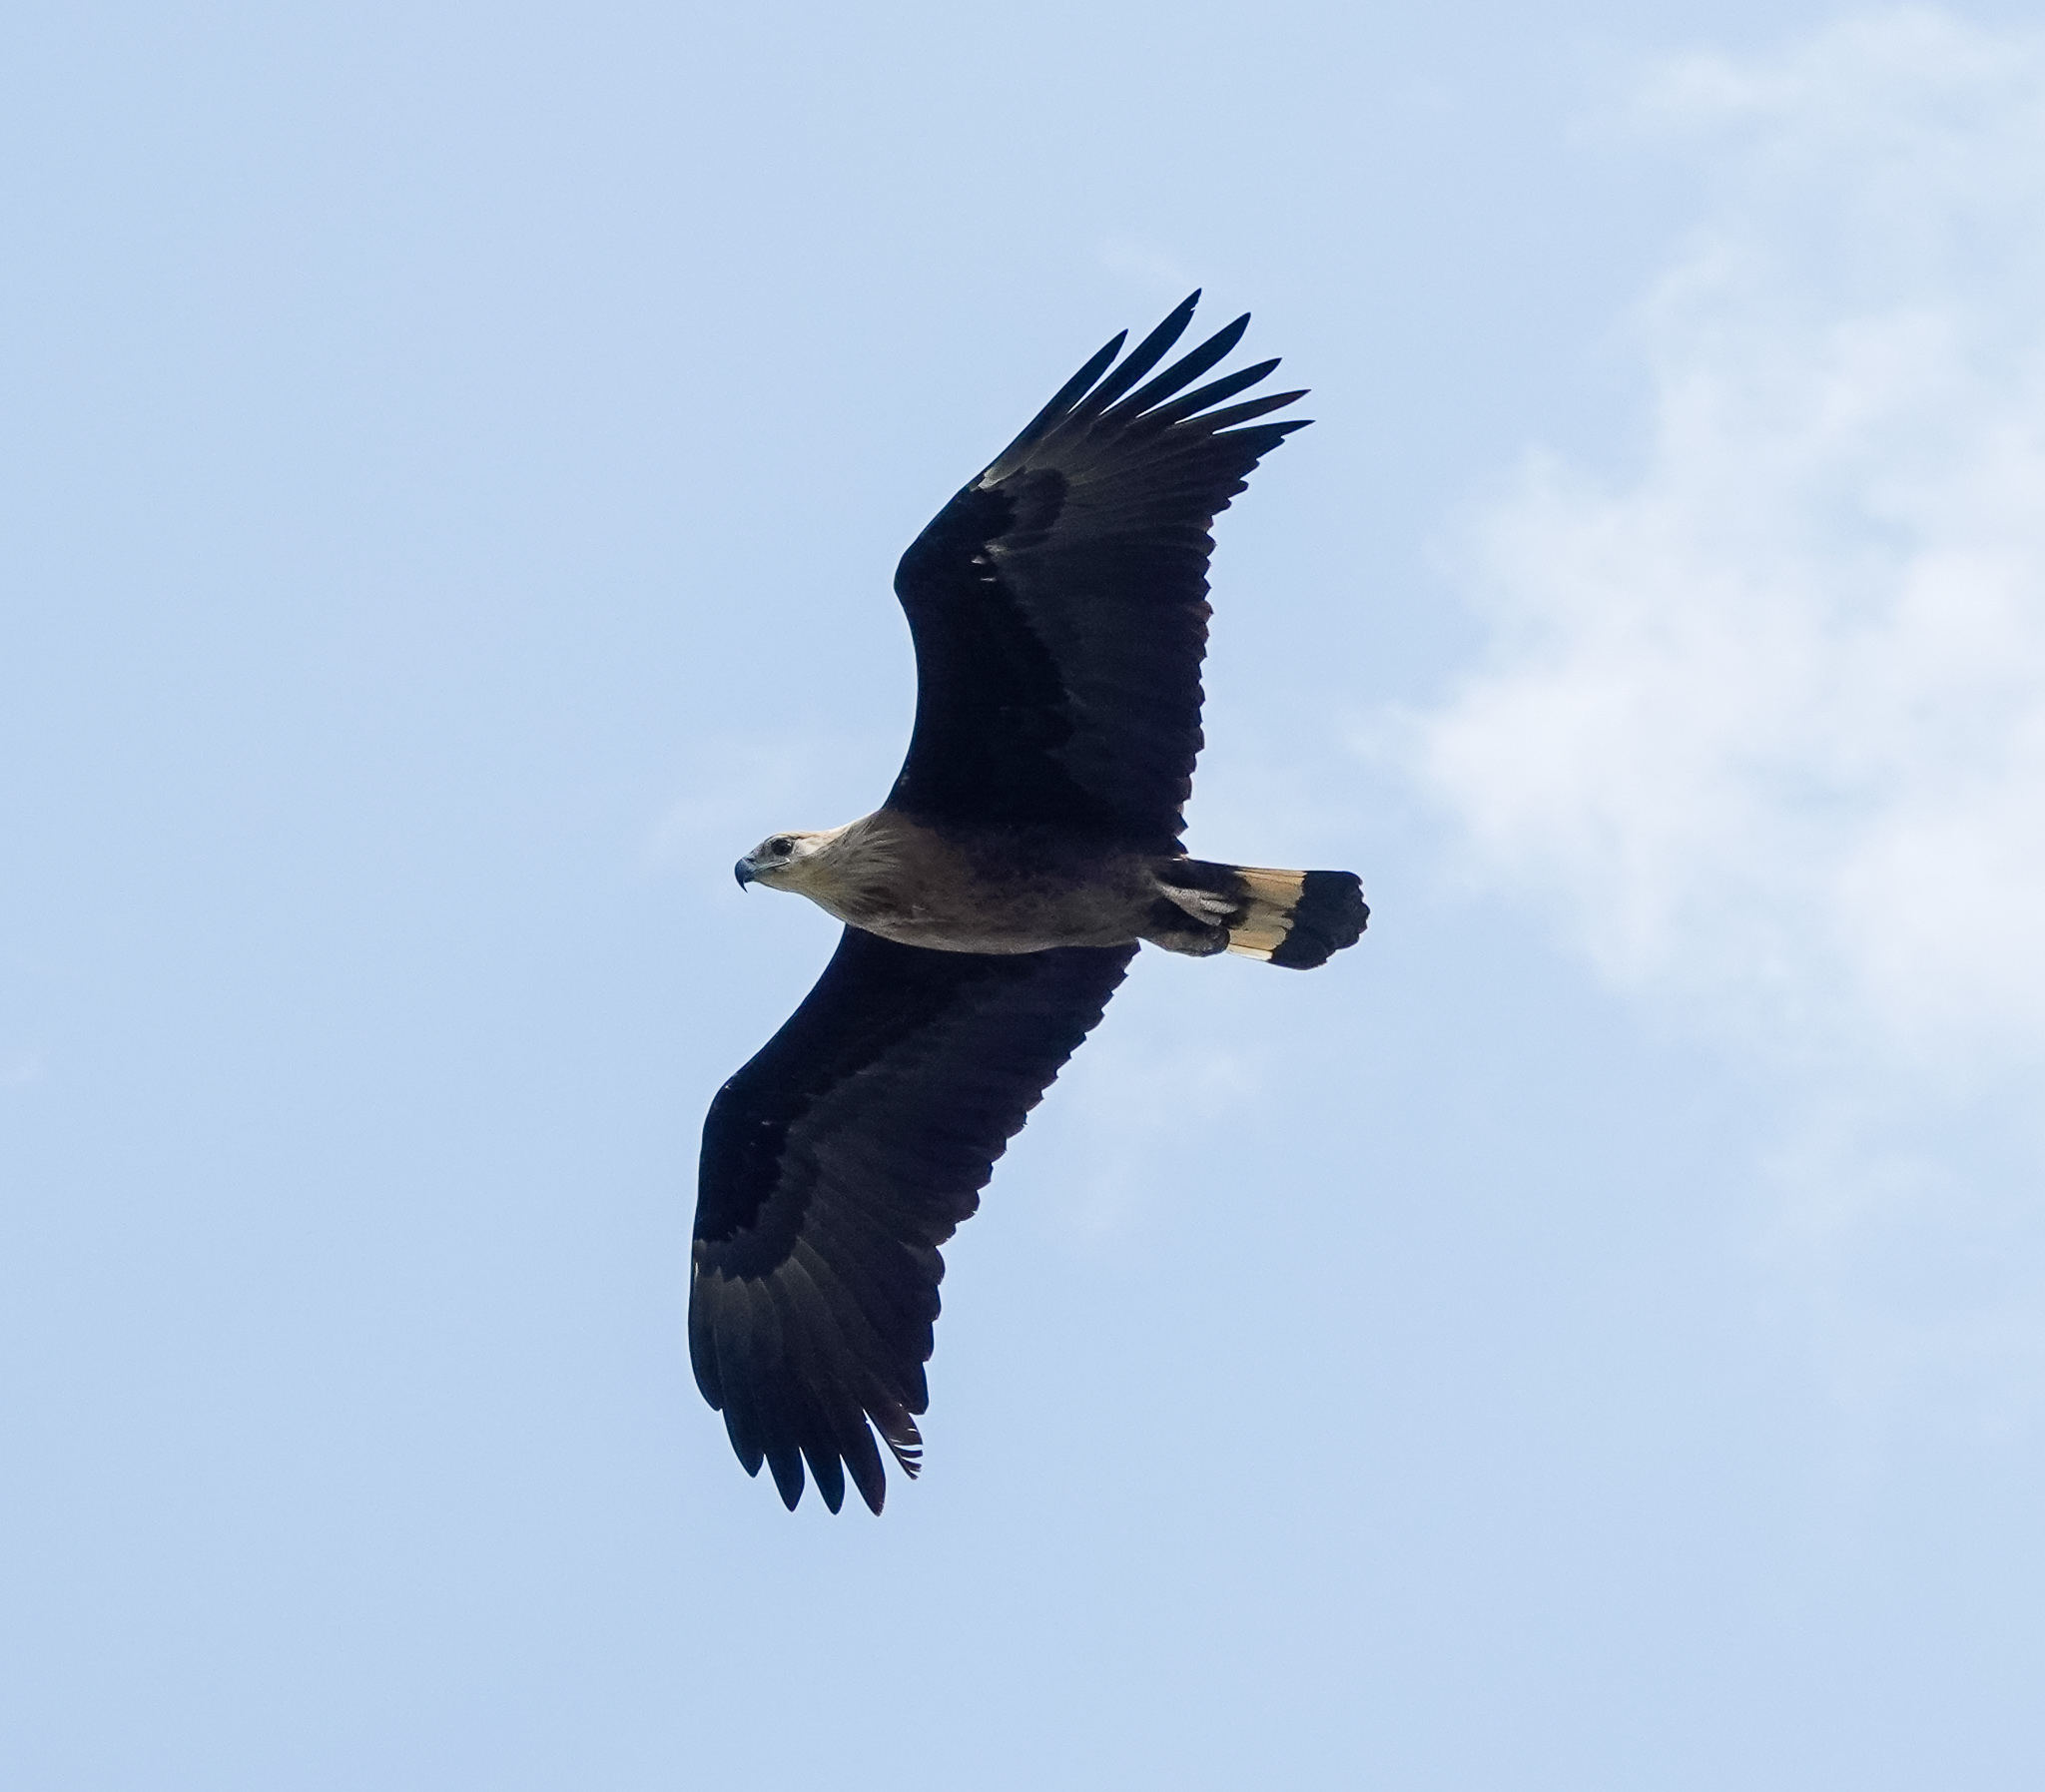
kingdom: Animalia
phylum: Chordata
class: Aves
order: Accipitriformes
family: Accipitridae
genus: Haliaeetus
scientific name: Haliaeetus leucoryphus
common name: Pallas's fish eagle
